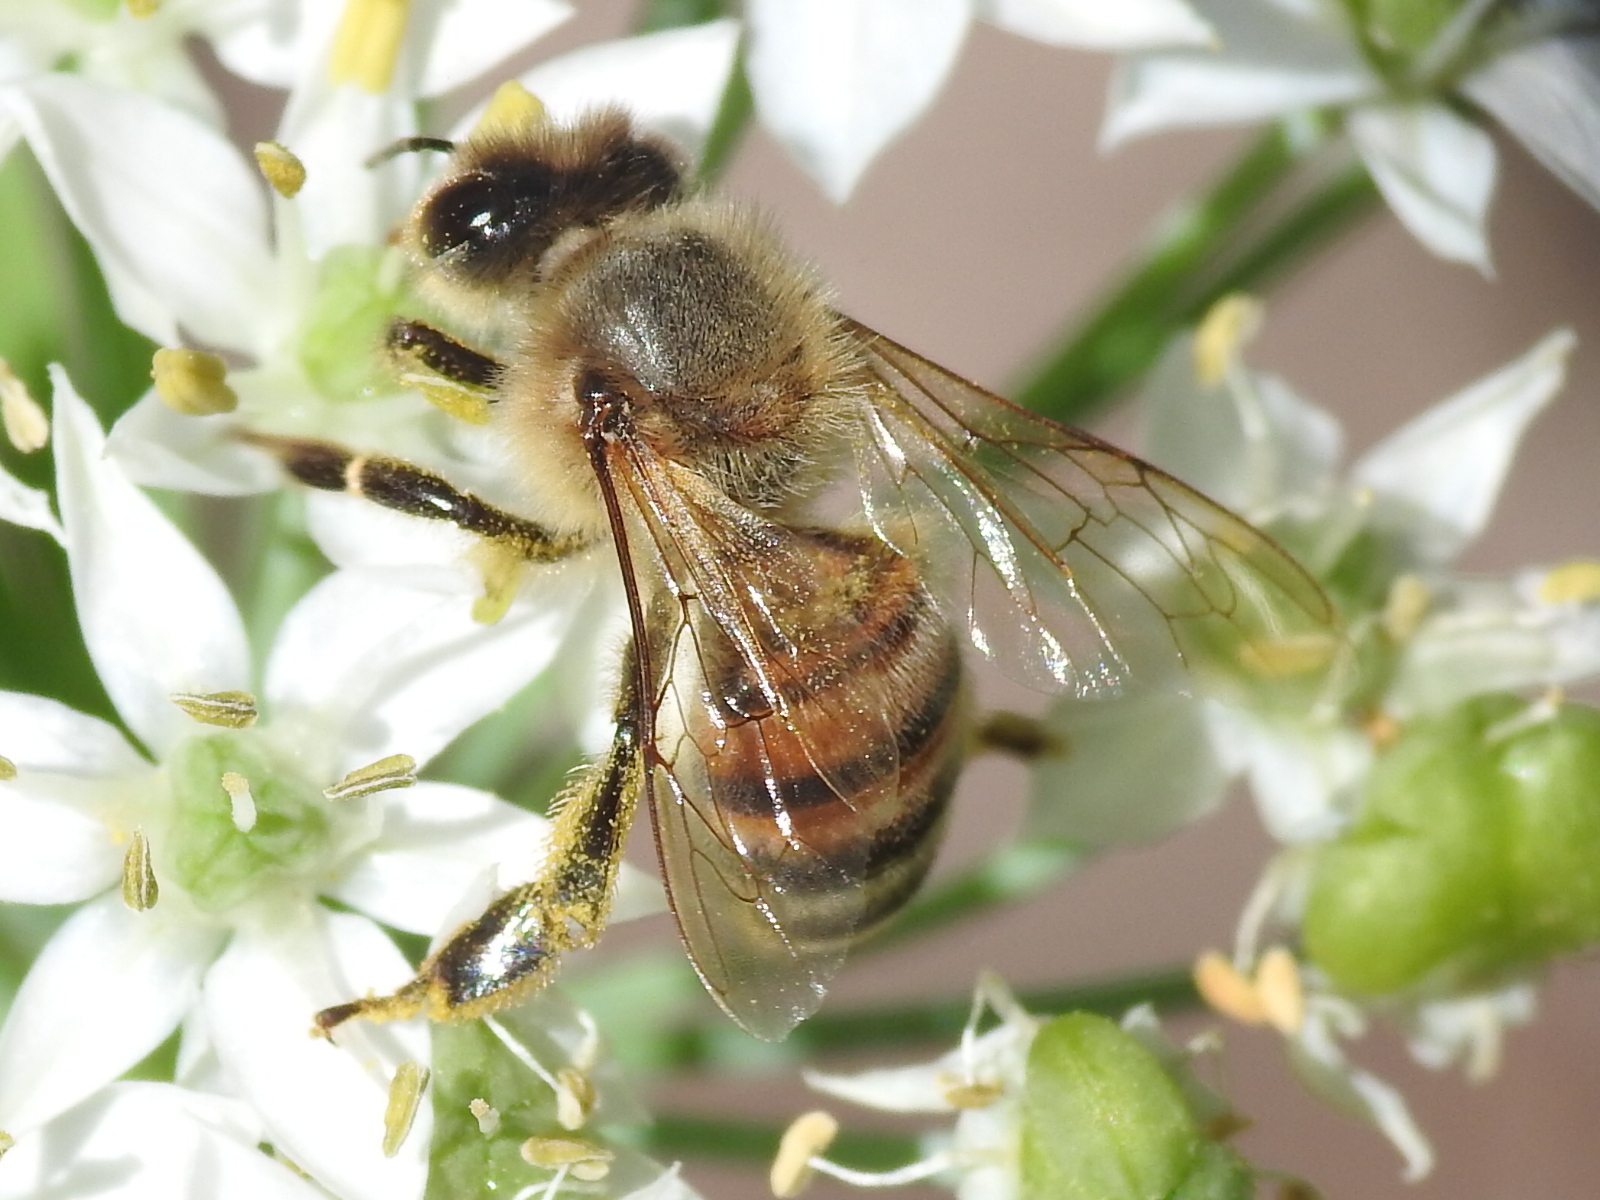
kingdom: Animalia
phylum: Arthropoda
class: Insecta
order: Hymenoptera
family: Apidae
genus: Apis
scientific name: Apis mellifera
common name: Honey bee
